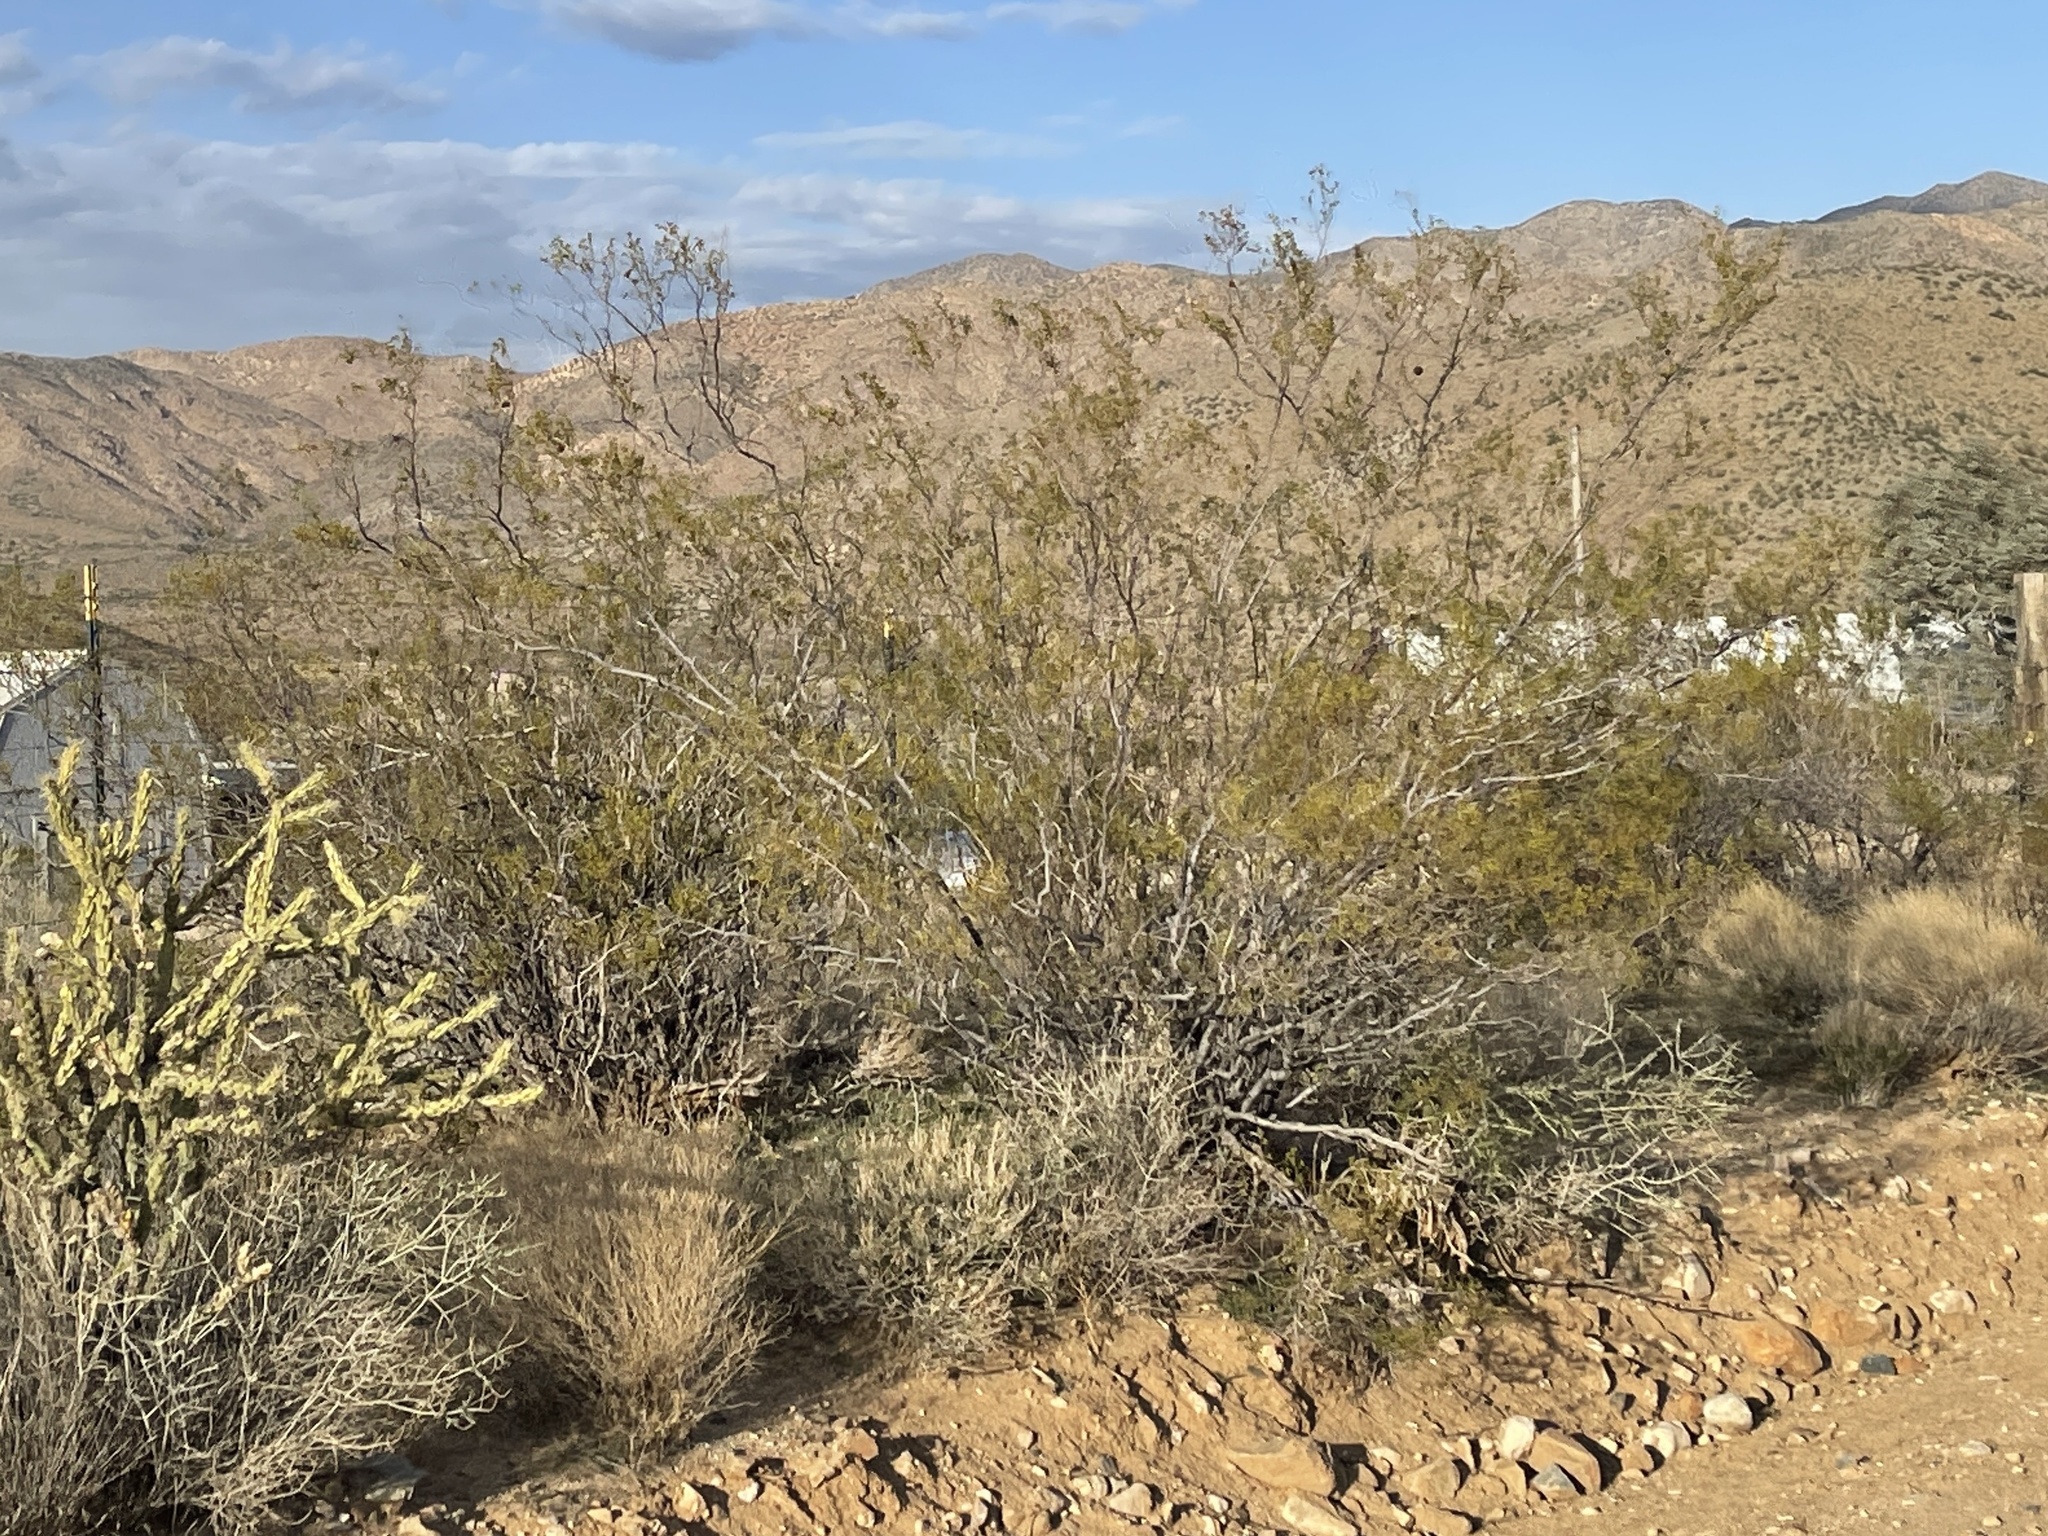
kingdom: Plantae
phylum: Tracheophyta
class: Magnoliopsida
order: Zygophyllales
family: Zygophyllaceae
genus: Larrea
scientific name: Larrea tridentata
